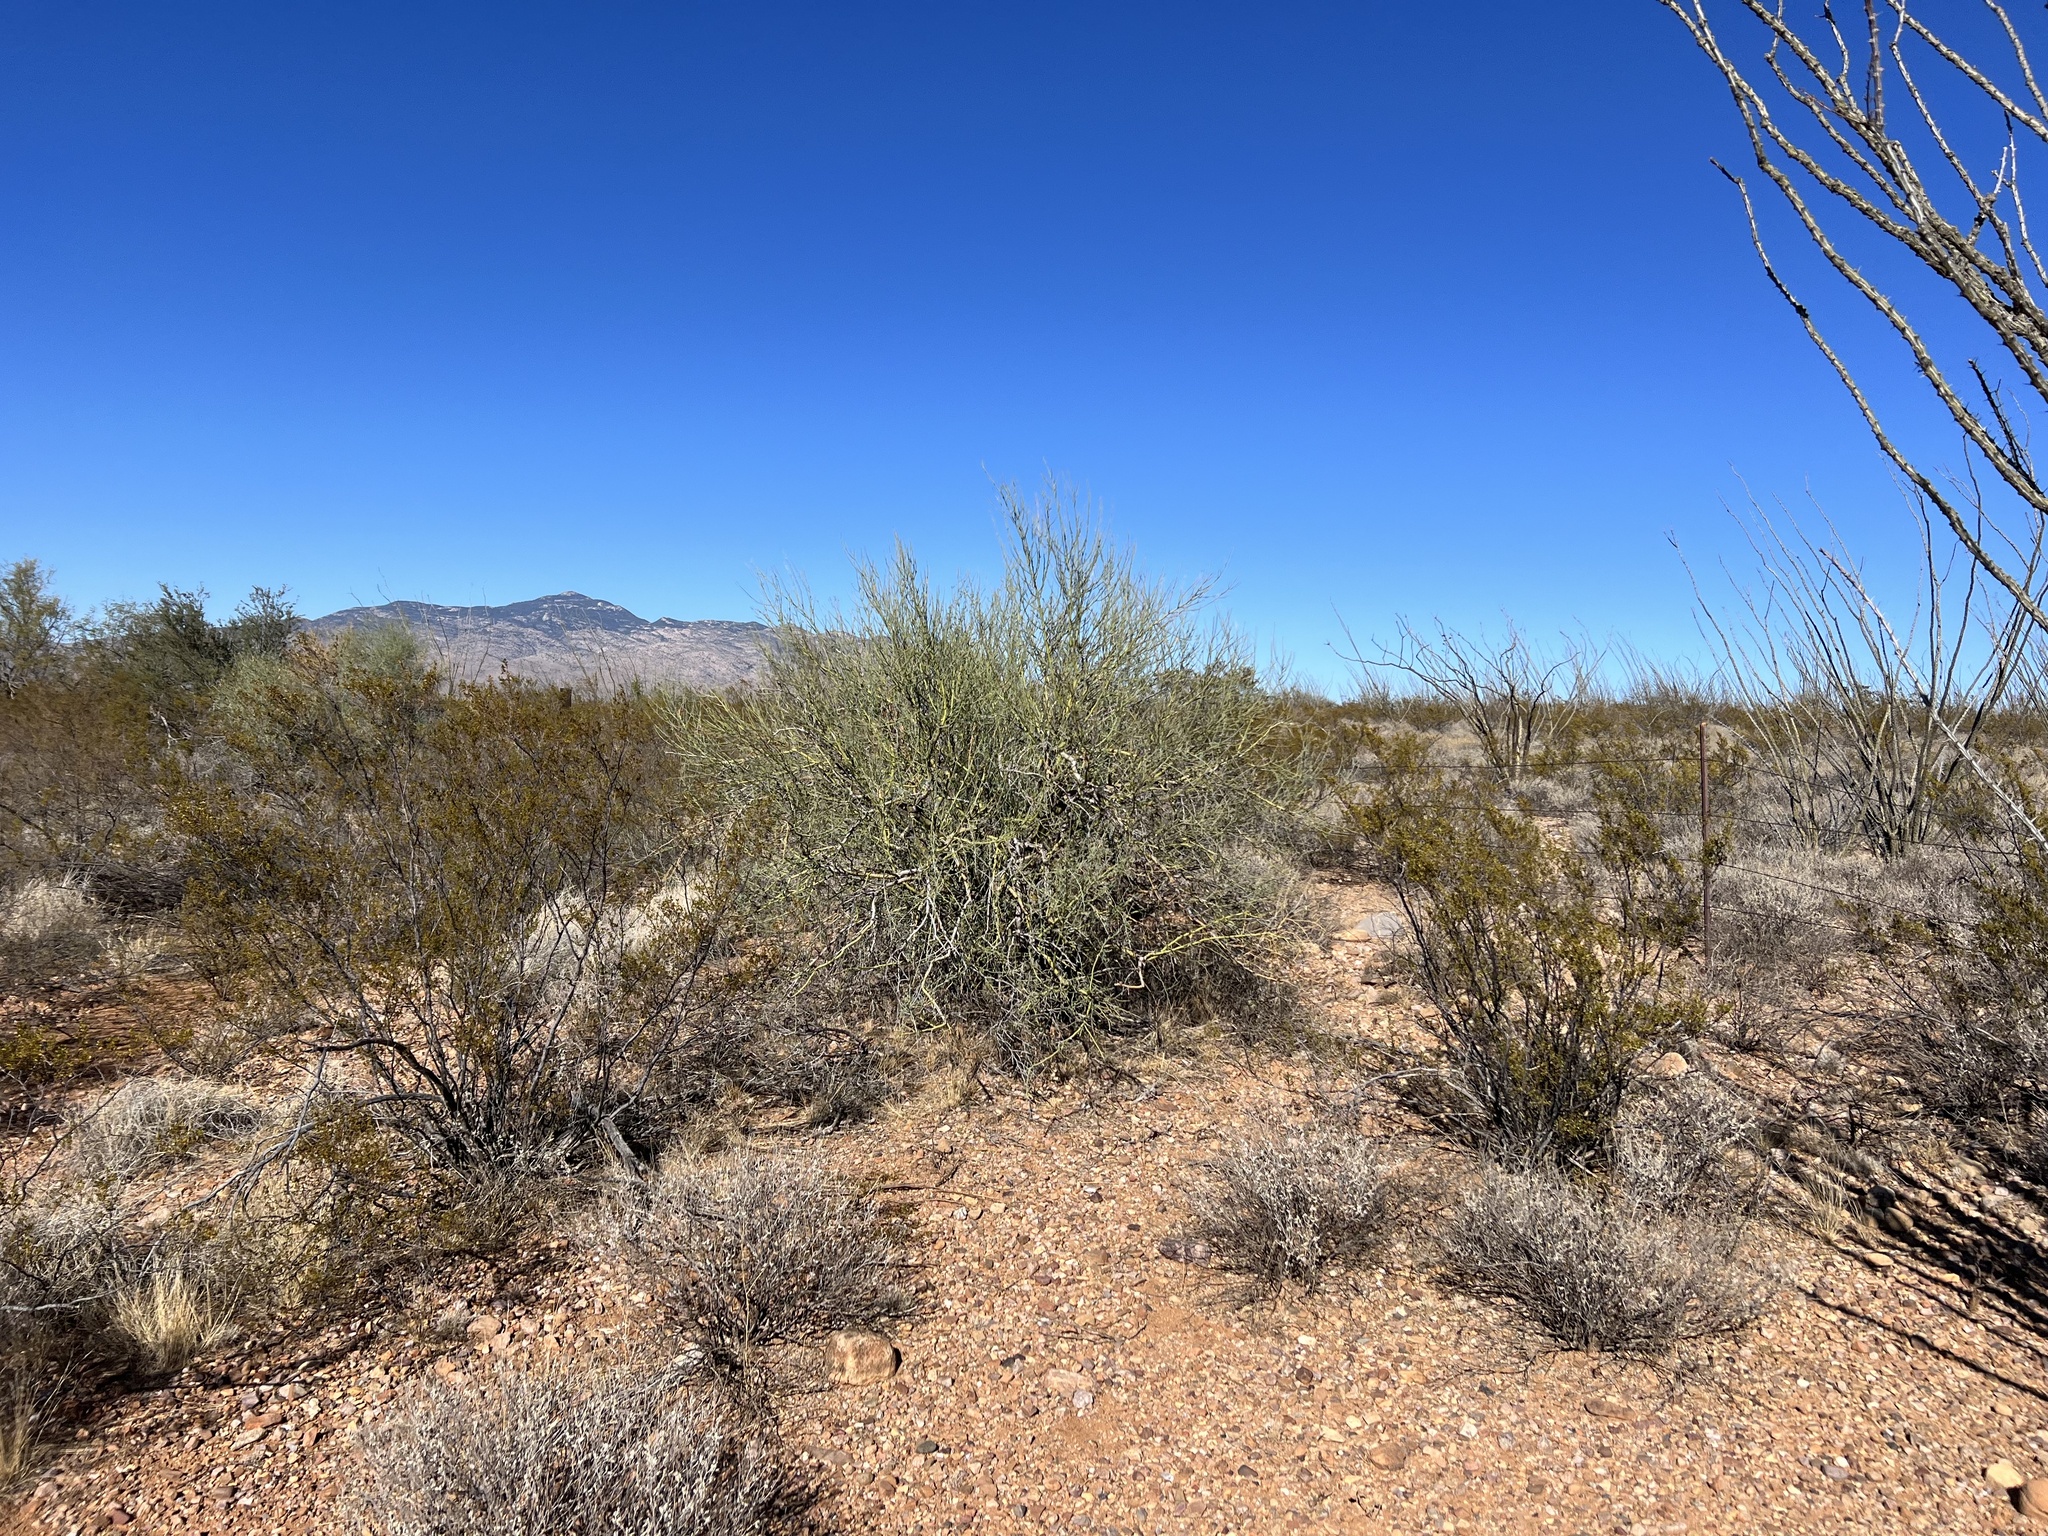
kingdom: Plantae
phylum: Tracheophyta
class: Magnoliopsida
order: Fabales
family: Fabaceae
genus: Parkinsonia
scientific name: Parkinsonia microphylla
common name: Yellow paloverde
